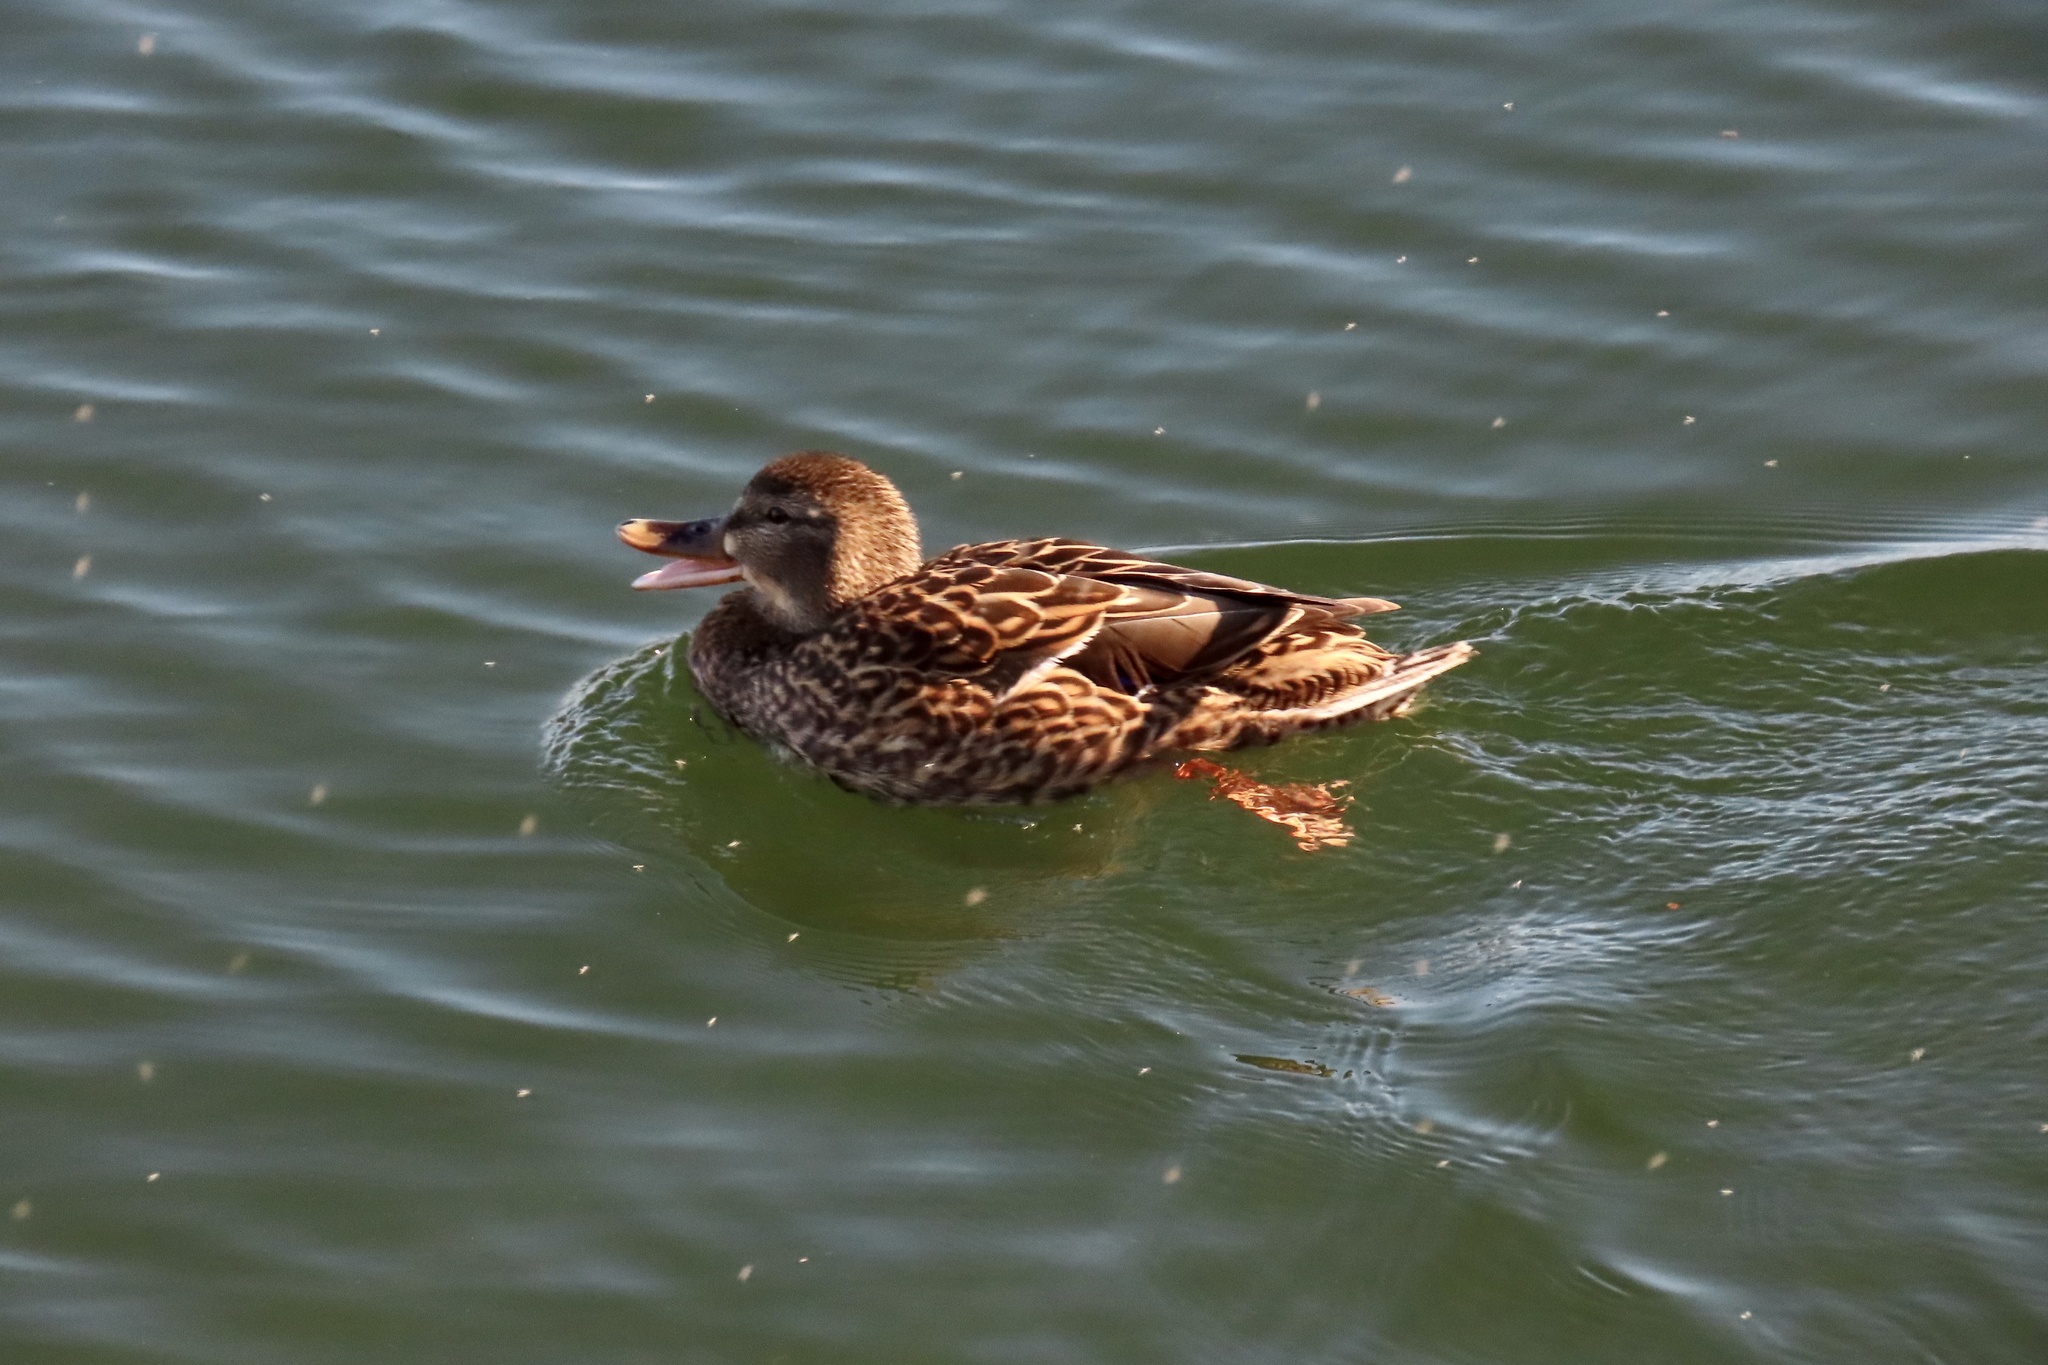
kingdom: Animalia
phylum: Chordata
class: Aves
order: Anseriformes
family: Anatidae
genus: Anas
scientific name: Anas platyrhynchos
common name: Mallard
